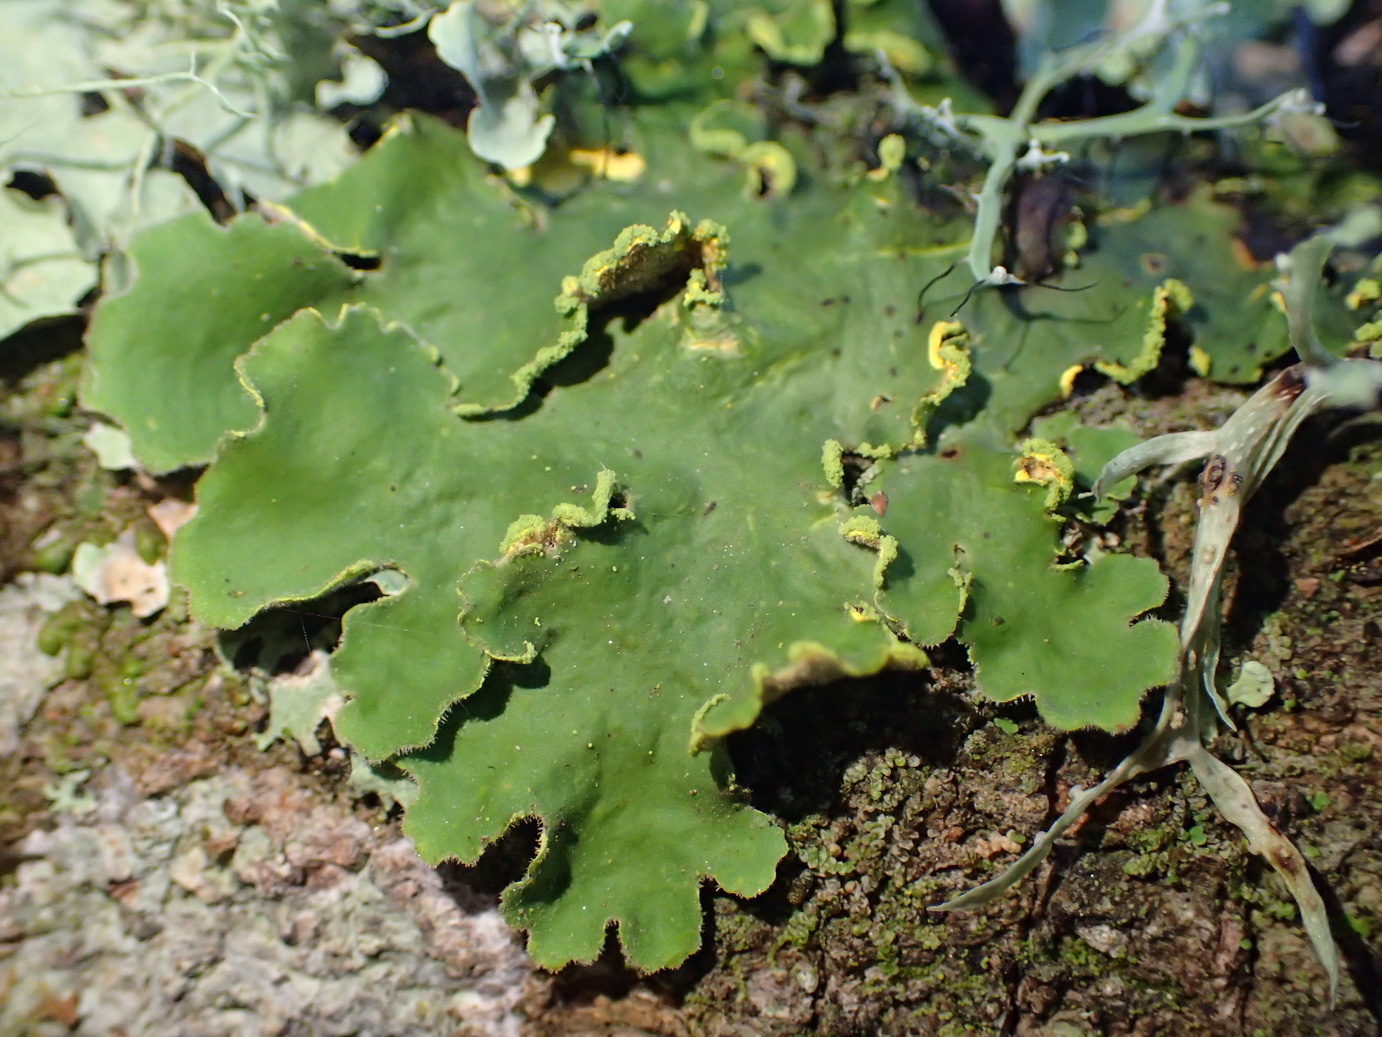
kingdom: Fungi
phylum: Ascomycota
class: Lecanoromycetes
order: Peltigerales
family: Lobariaceae
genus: Pseudocyphellaria
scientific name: Pseudocyphellaria aurata
